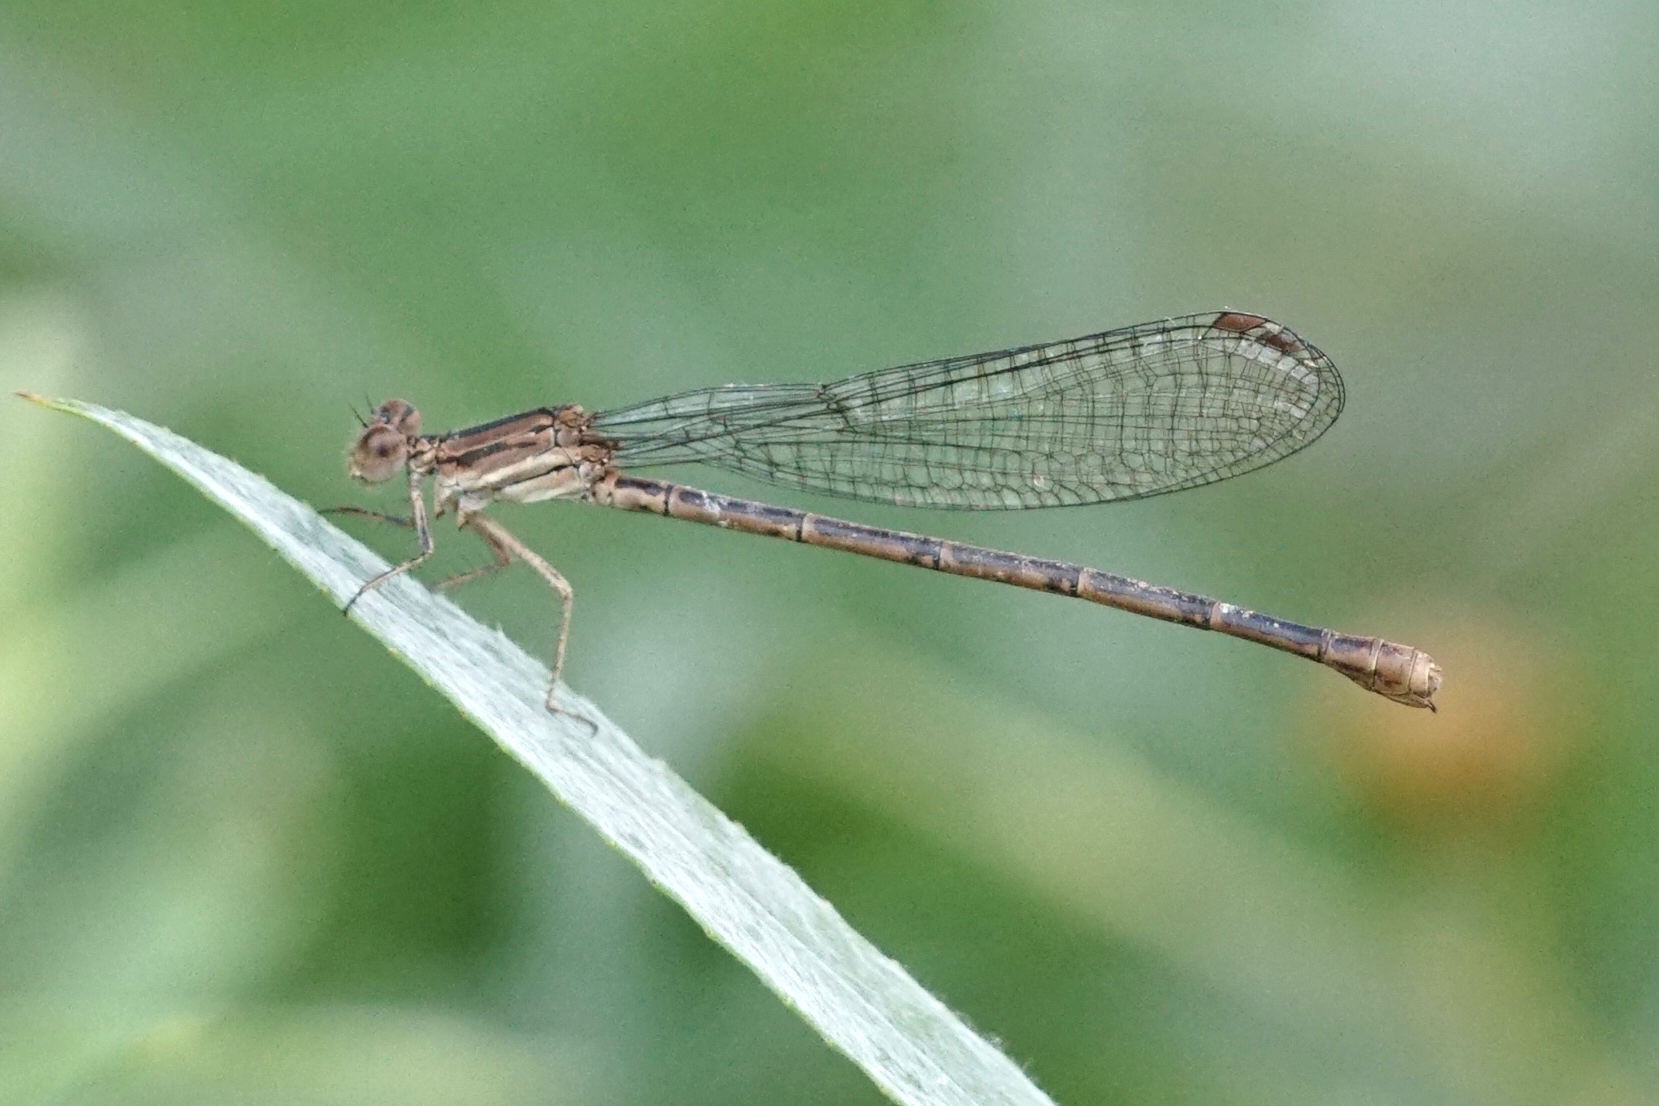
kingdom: Animalia
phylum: Arthropoda
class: Insecta
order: Odonata
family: Coenagrionidae
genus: Argia
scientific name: Argia fumipennis
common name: Variable dancer
